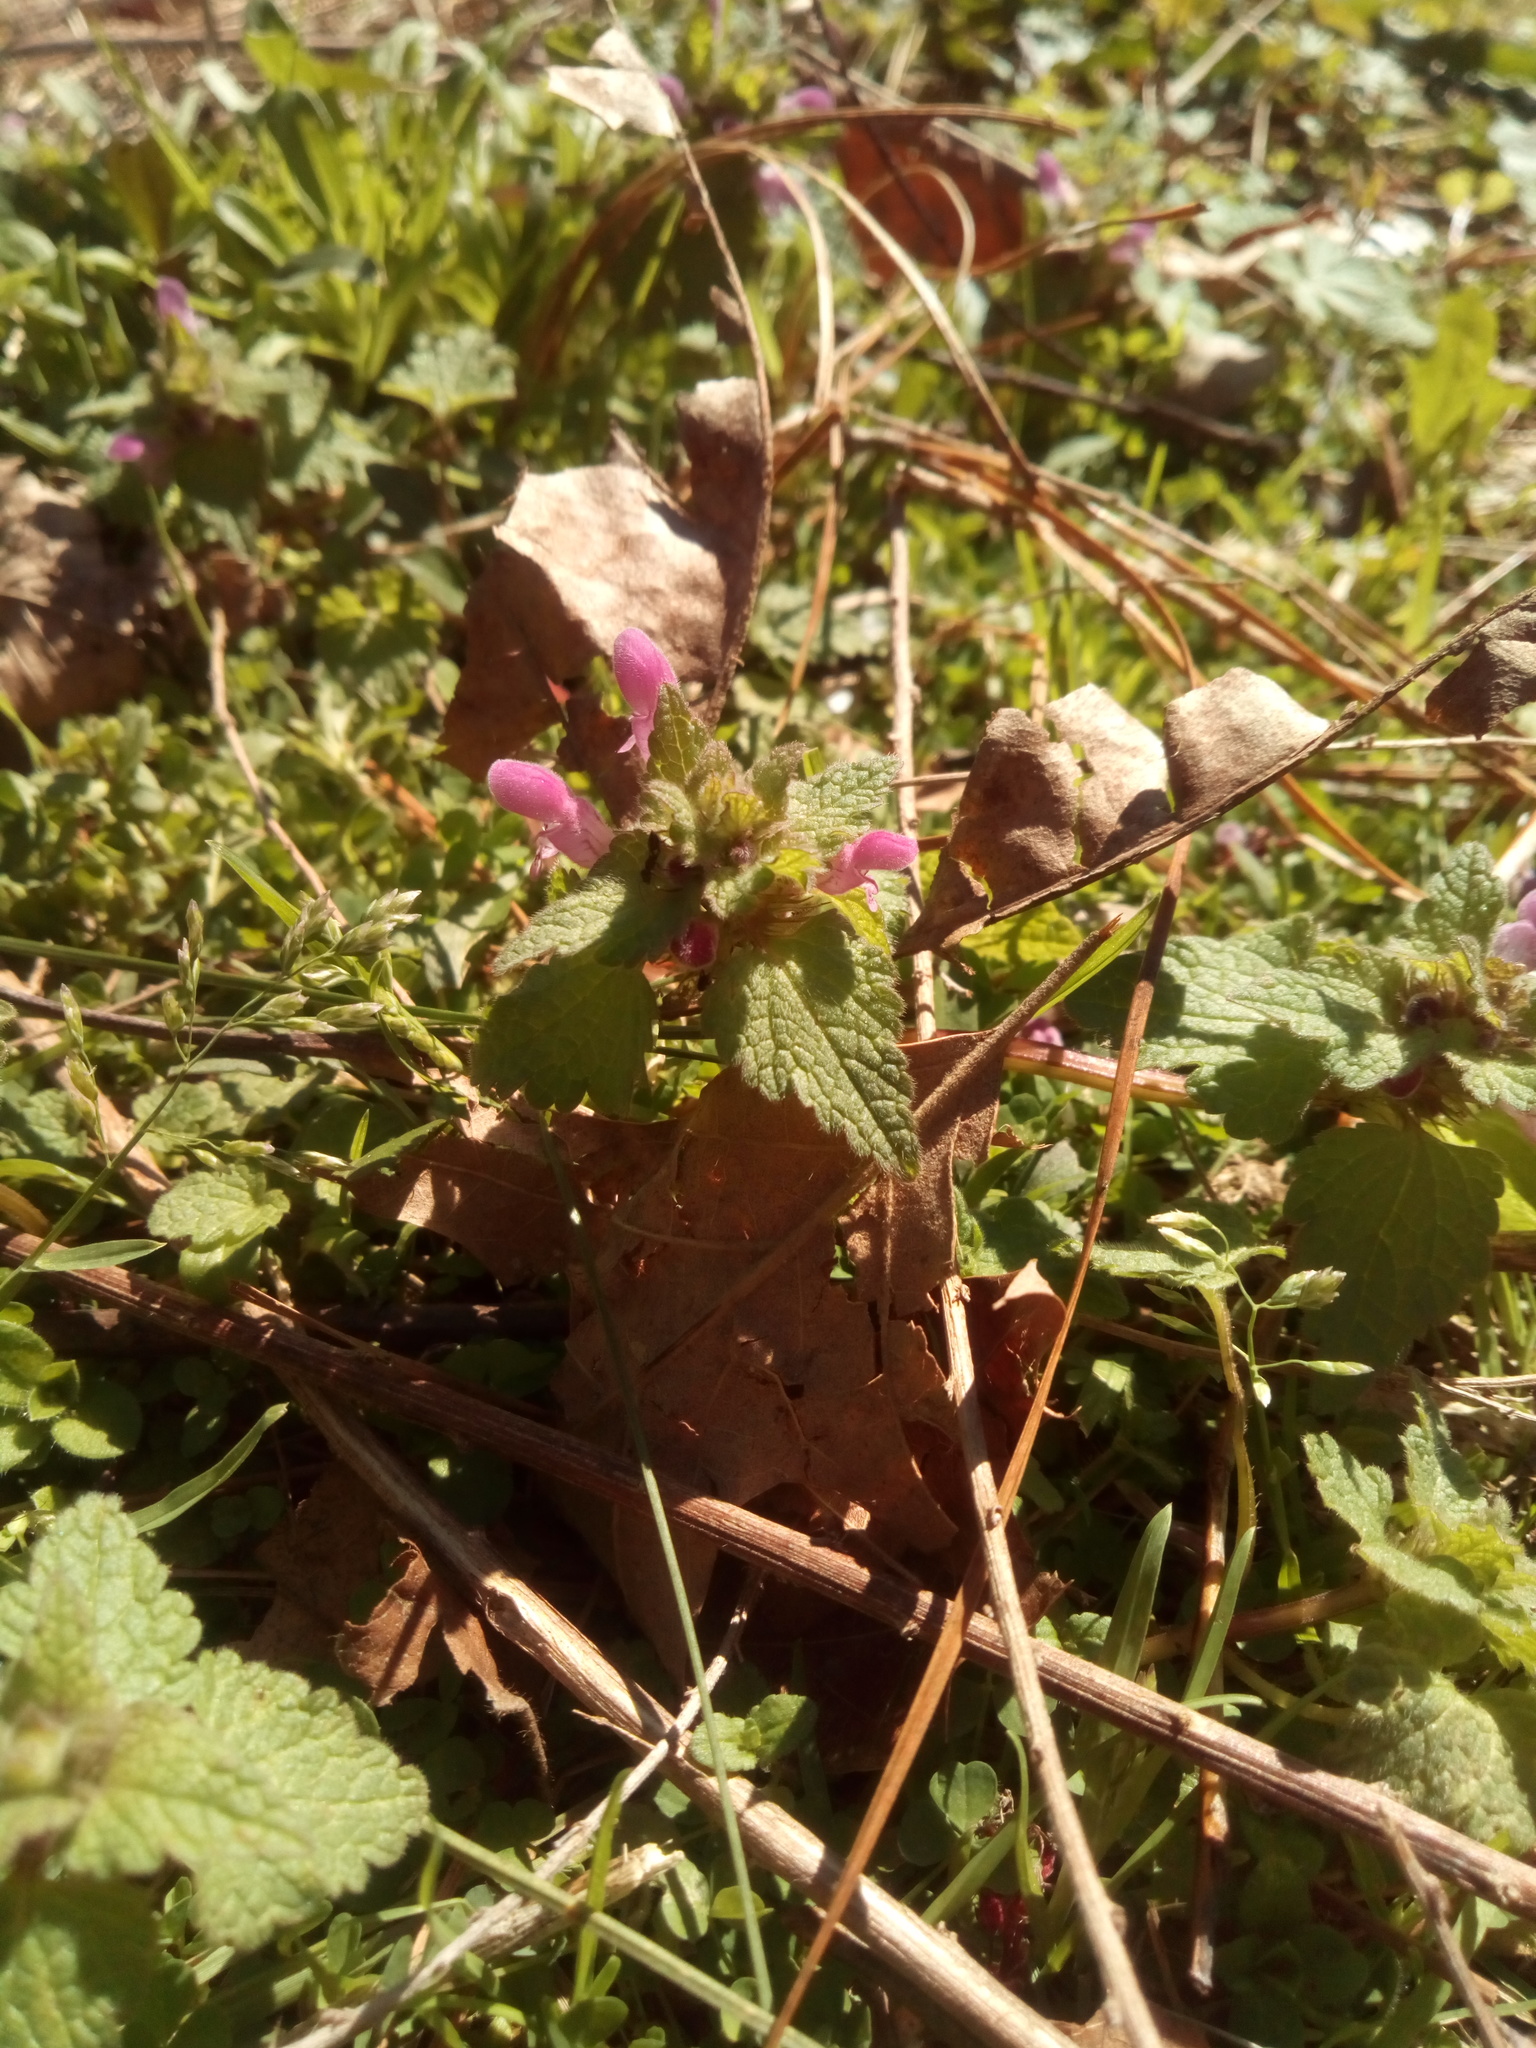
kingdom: Plantae
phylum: Tracheophyta
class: Magnoliopsida
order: Lamiales
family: Lamiaceae
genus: Lamium
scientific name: Lamium purpureum
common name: Red dead-nettle
